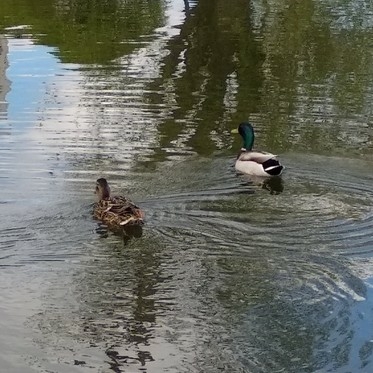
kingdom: Animalia
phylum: Chordata
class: Aves
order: Anseriformes
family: Anatidae
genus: Anas
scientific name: Anas platyrhynchos
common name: Mallard
